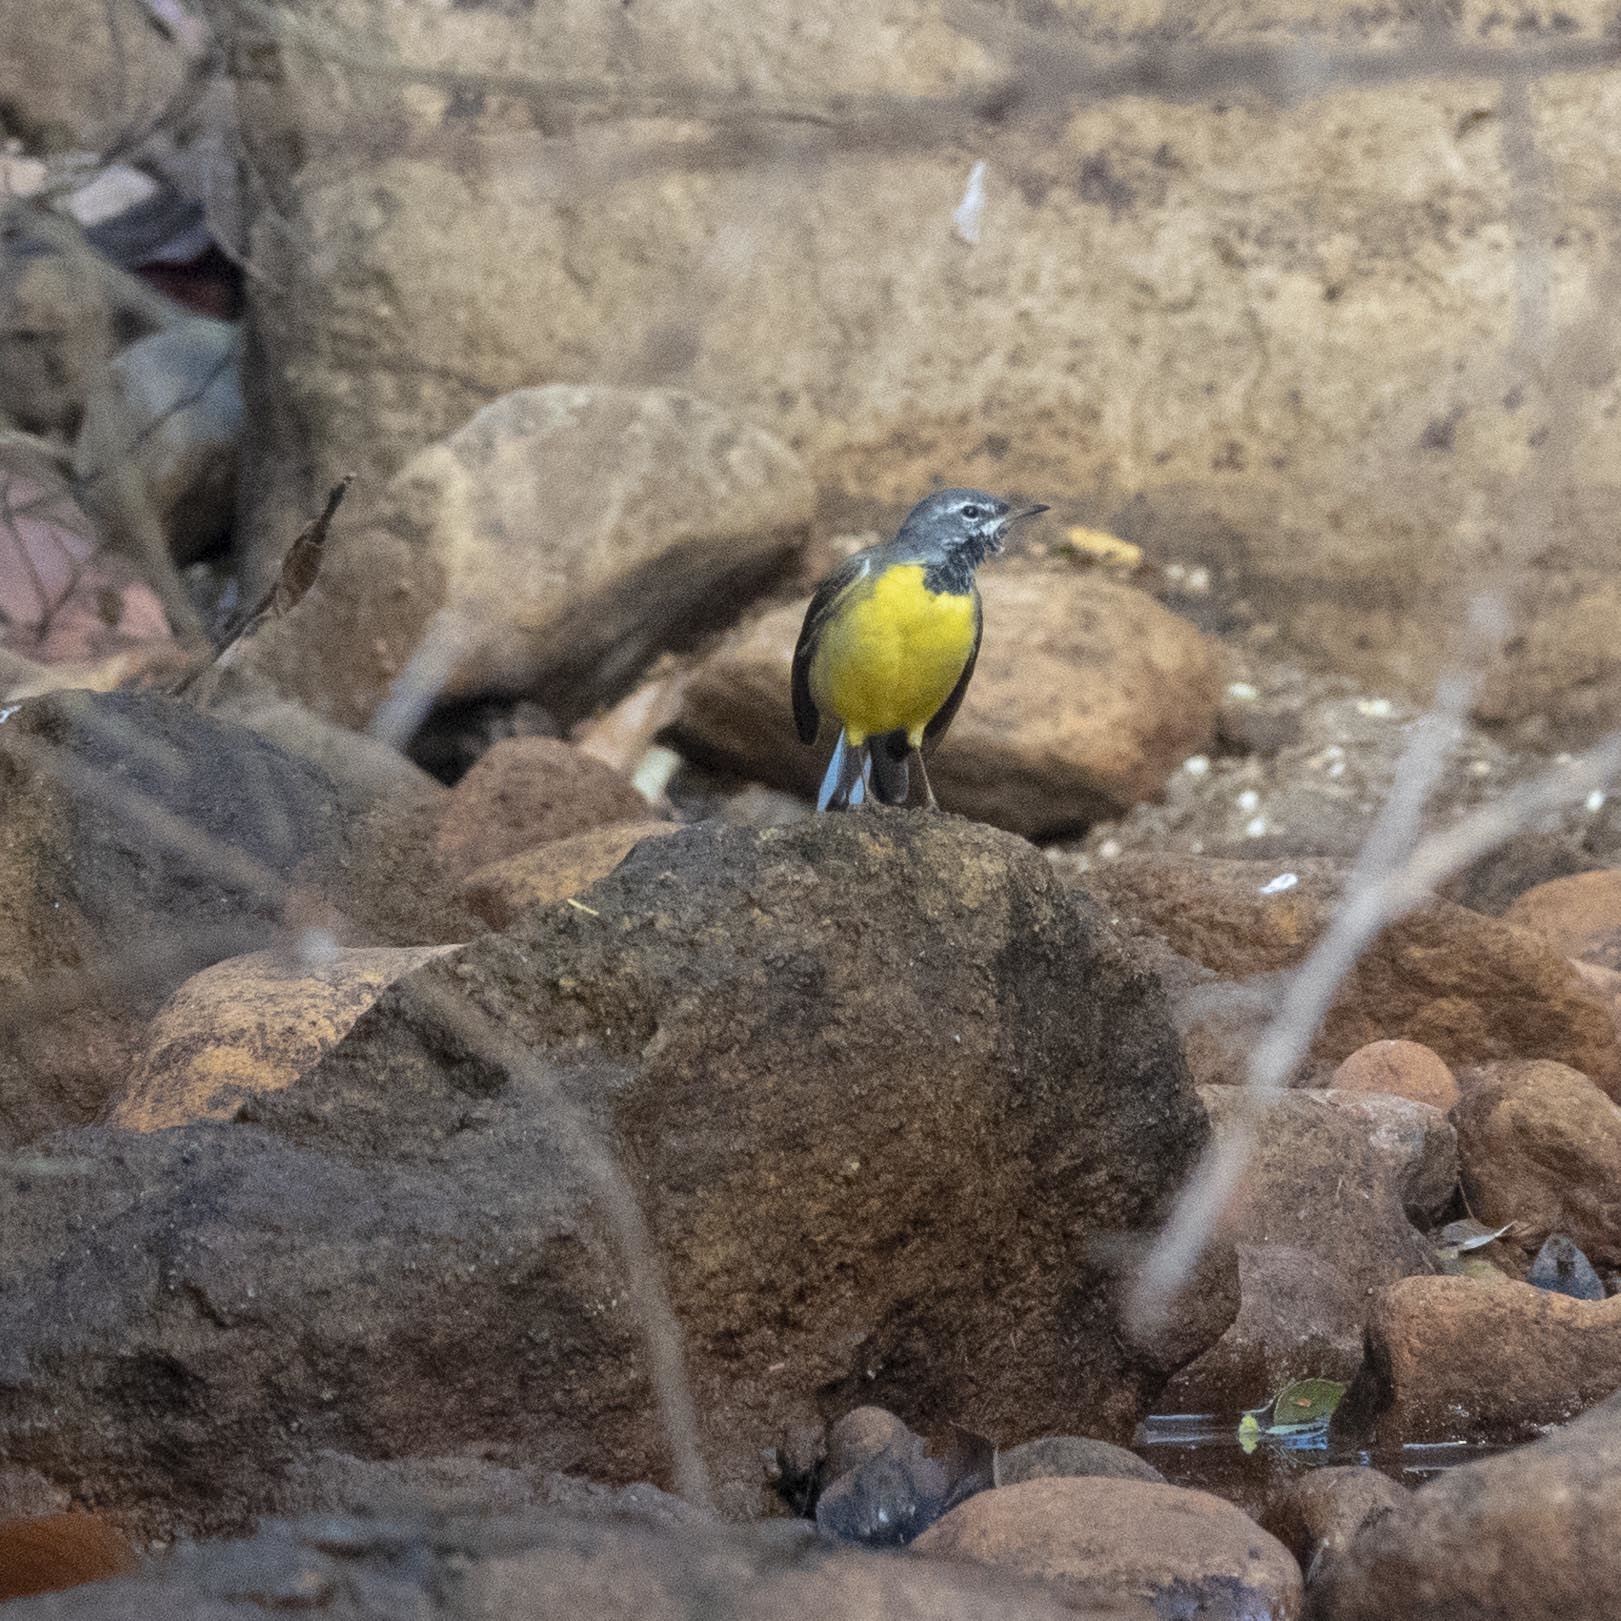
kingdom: Animalia
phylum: Chordata
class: Aves
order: Passeriformes
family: Motacillidae
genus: Motacilla
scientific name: Motacilla cinerea
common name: Grey wagtail
